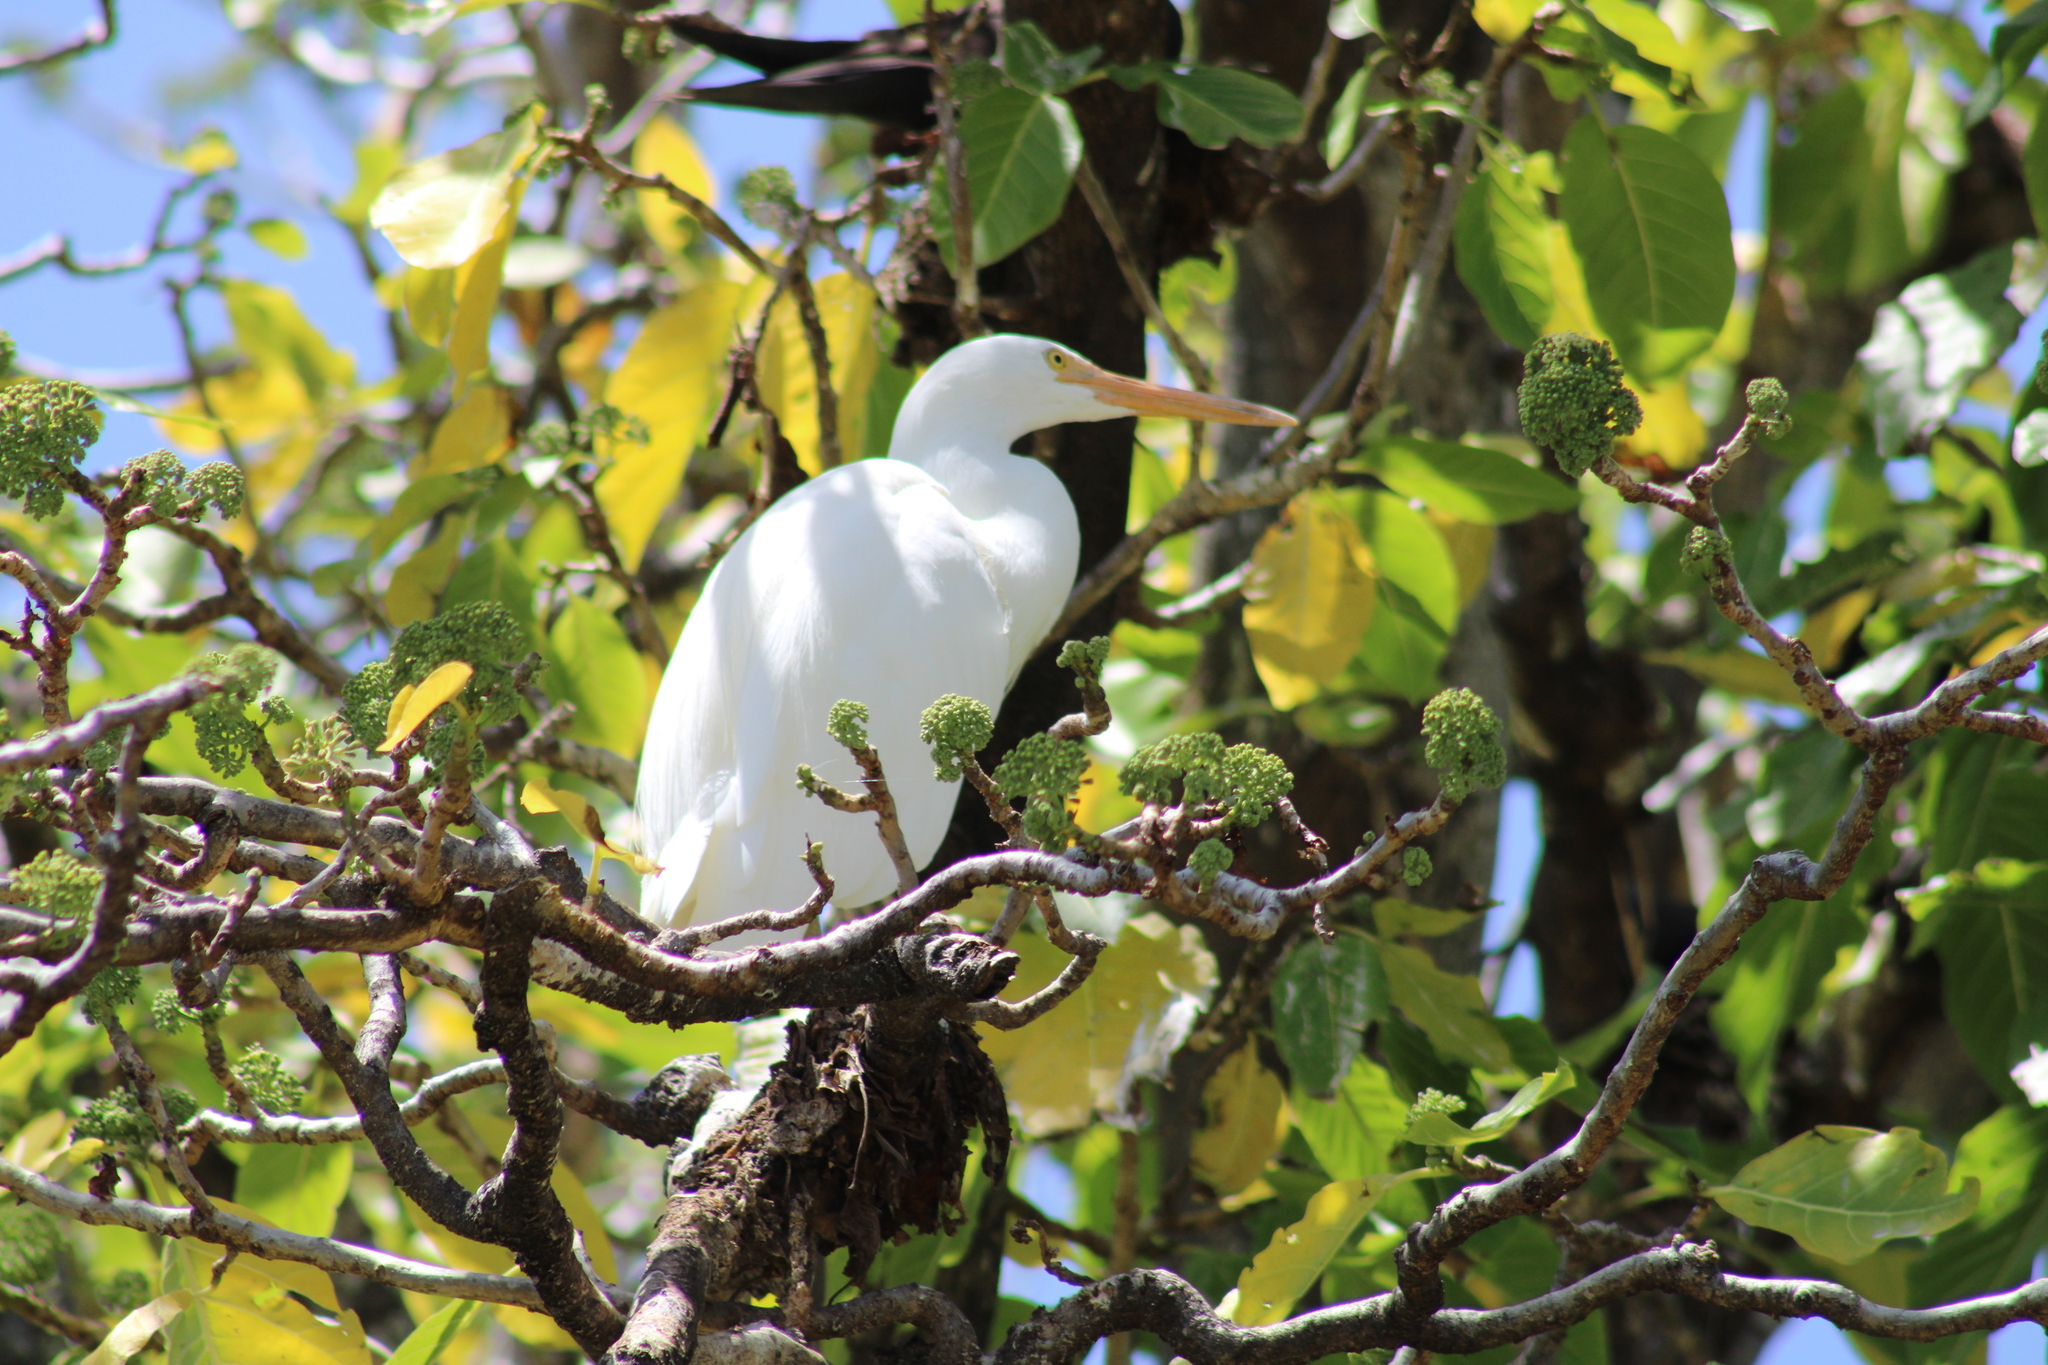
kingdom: Animalia
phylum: Chordata
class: Aves
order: Pelecaniformes
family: Ardeidae
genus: Egretta
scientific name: Egretta sacra
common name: Pacific reef heron
